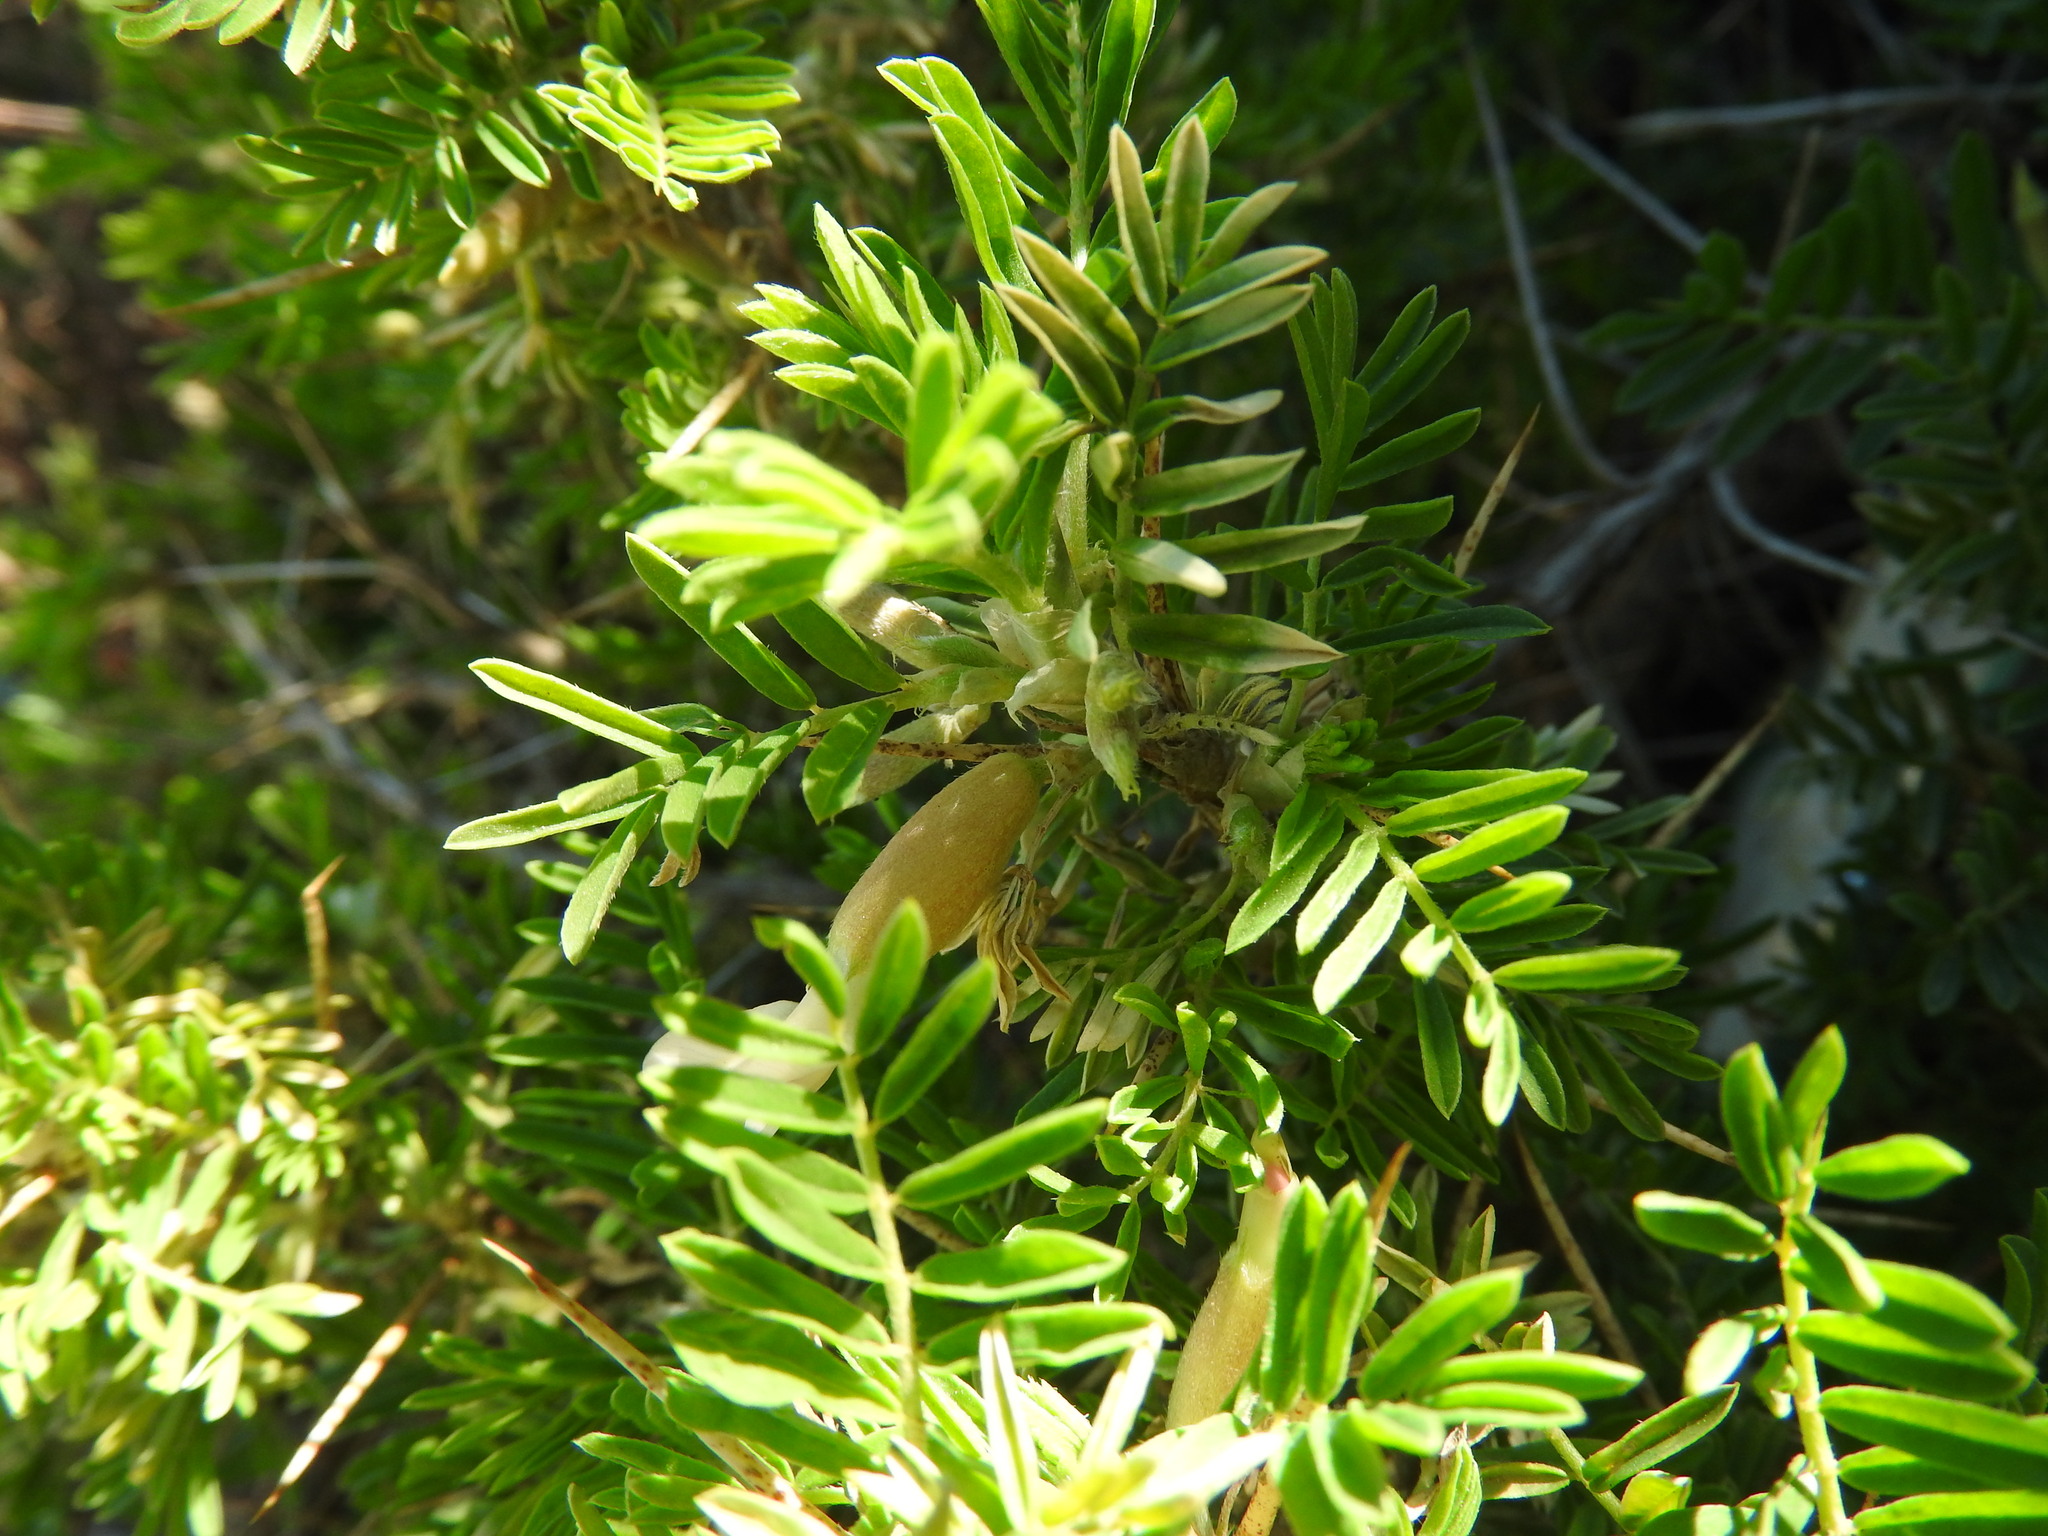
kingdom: Plantae
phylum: Tracheophyta
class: Magnoliopsida
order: Fabales
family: Fabaceae
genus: Astragalus
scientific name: Astragalus armatus
